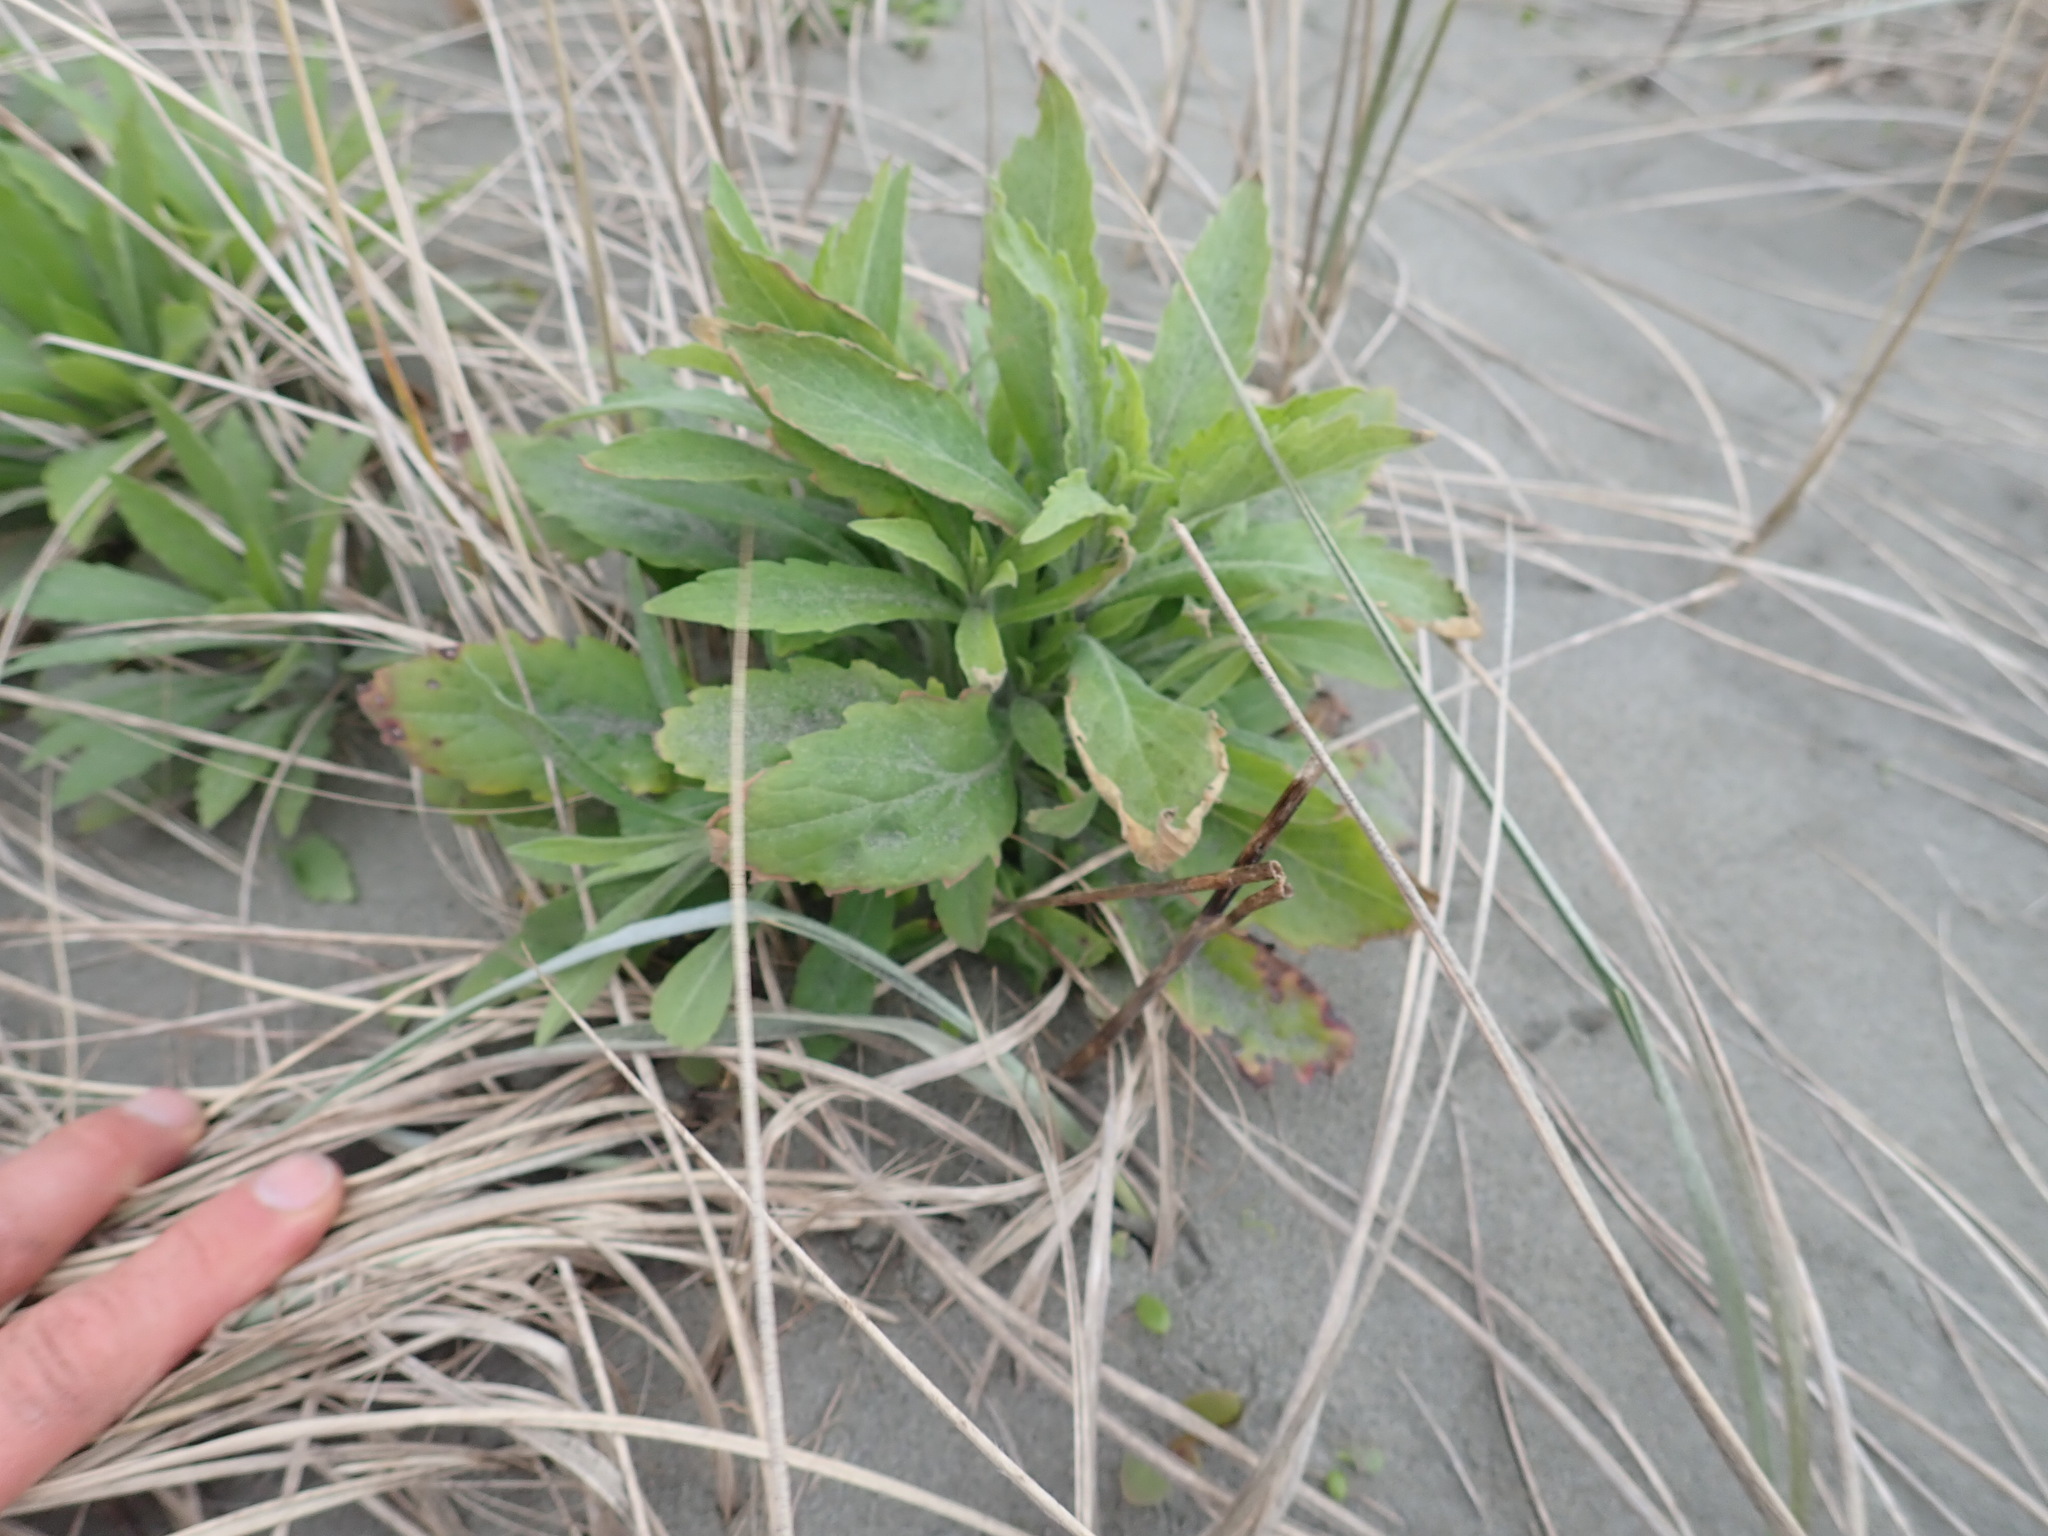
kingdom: Plantae
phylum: Tracheophyta
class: Magnoliopsida
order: Asterales
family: Asteraceae
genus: Erigeron
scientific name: Erigeron sumatrensis
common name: Daisy
